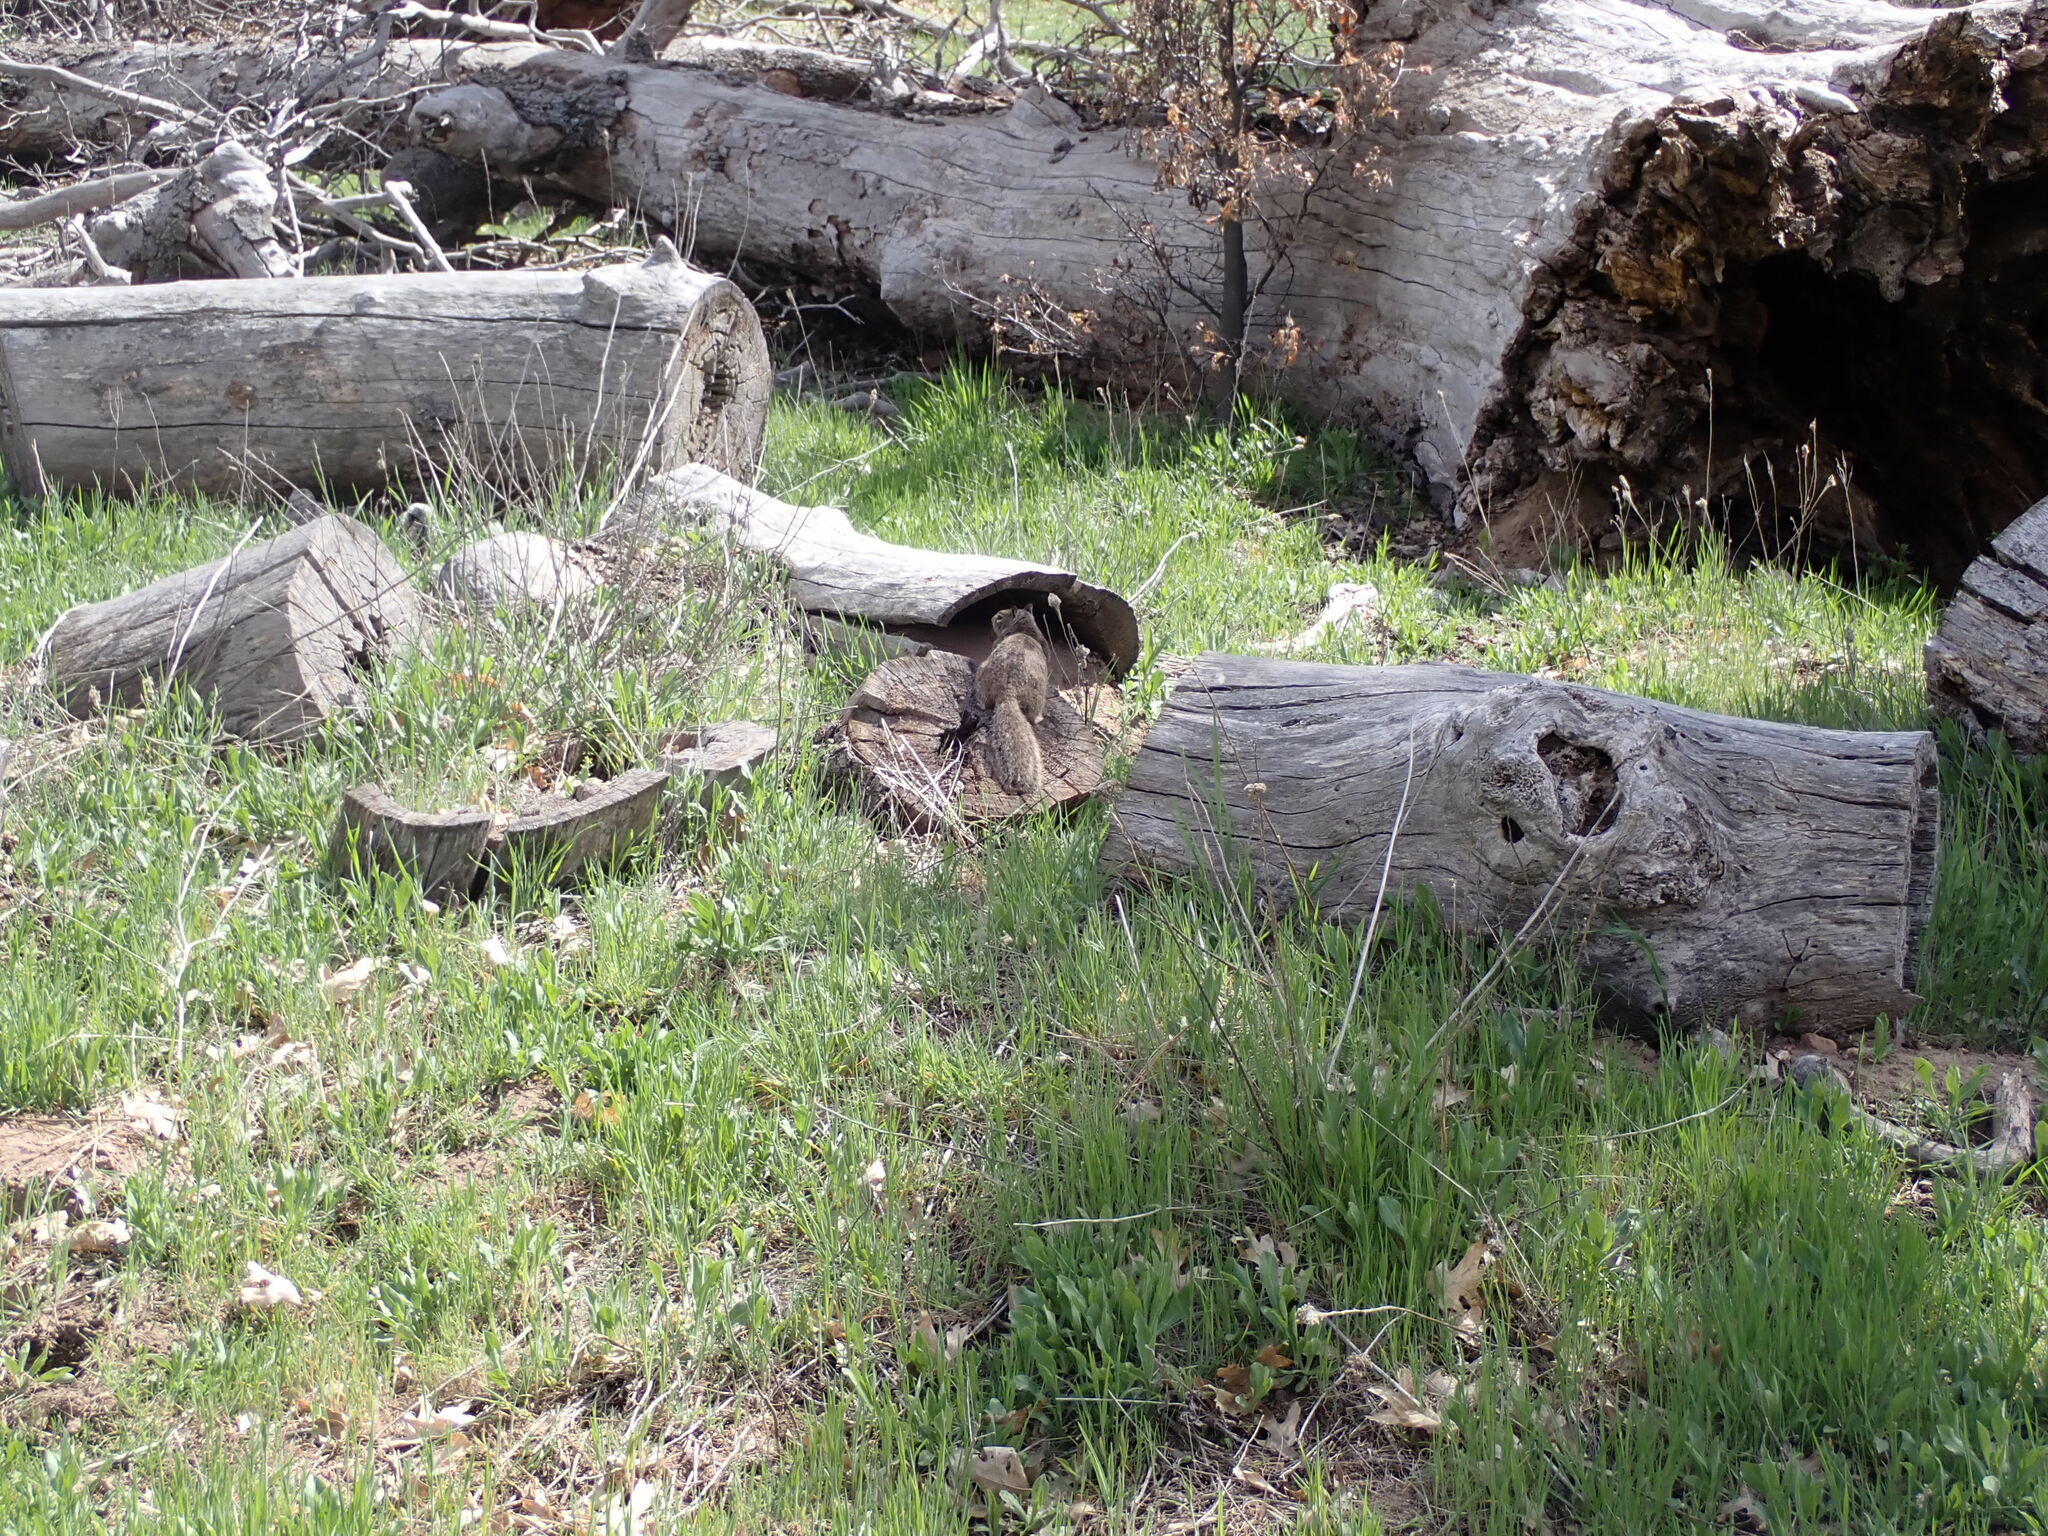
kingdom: Animalia
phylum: Chordata
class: Mammalia
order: Rodentia
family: Sciuridae
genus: Otospermophilus
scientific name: Otospermophilus beecheyi
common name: California ground squirrel
